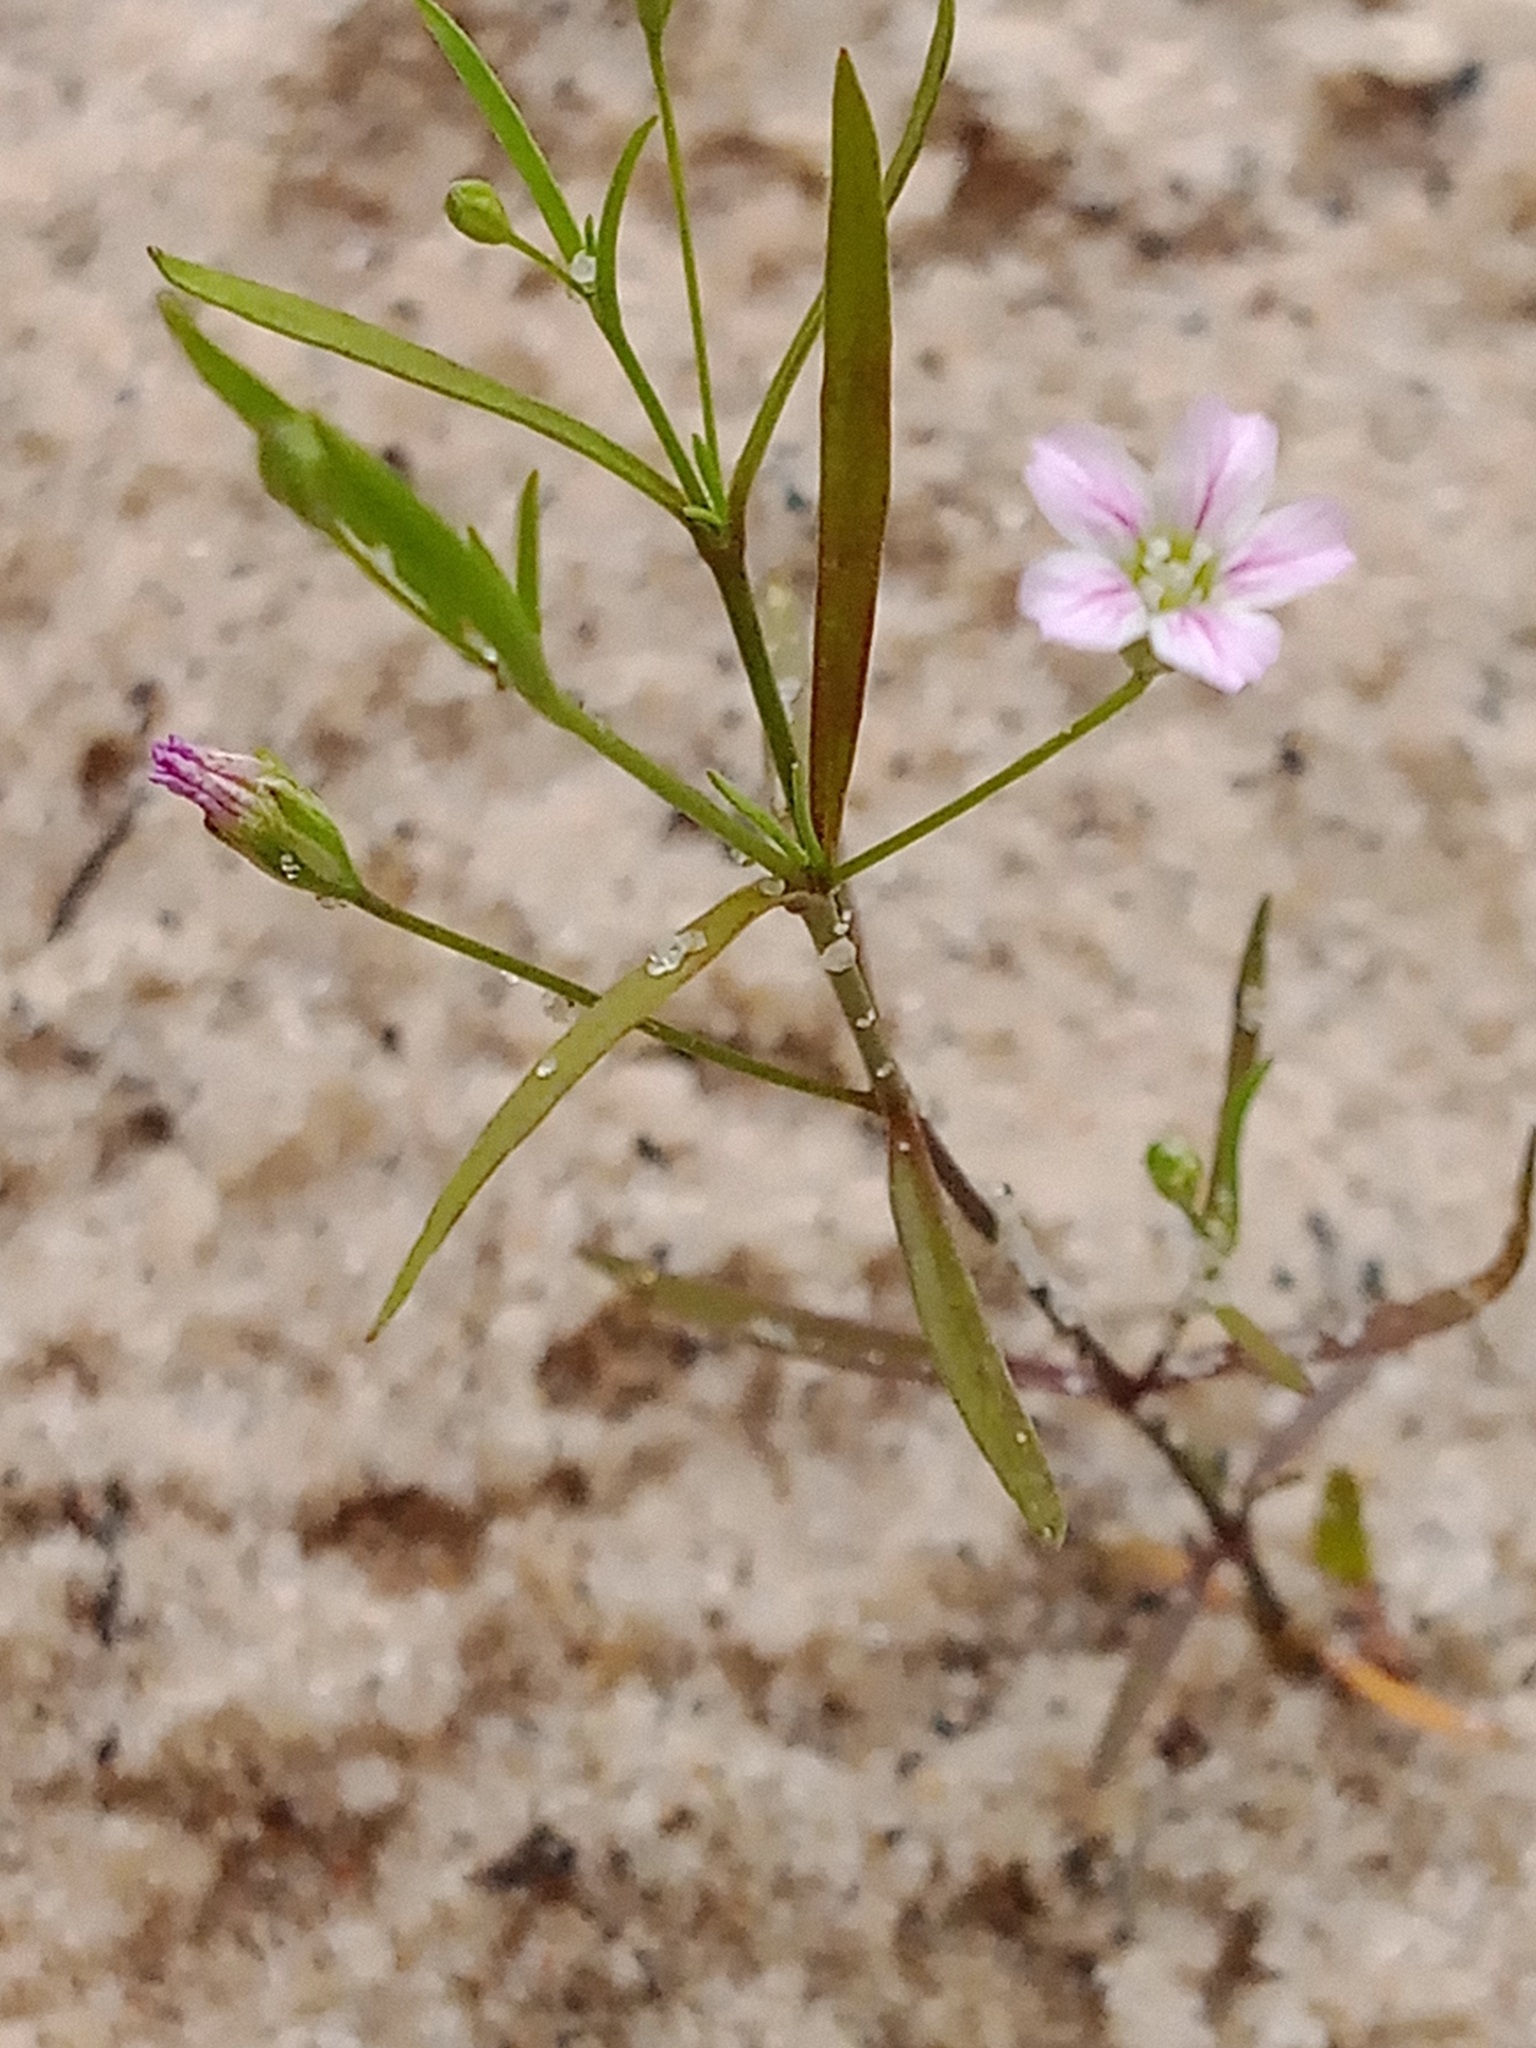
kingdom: Plantae
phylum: Tracheophyta
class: Magnoliopsida
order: Caryophyllales
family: Caryophyllaceae
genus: Psammophiliella
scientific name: Psammophiliella muralis
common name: Cushion baby's-breath
